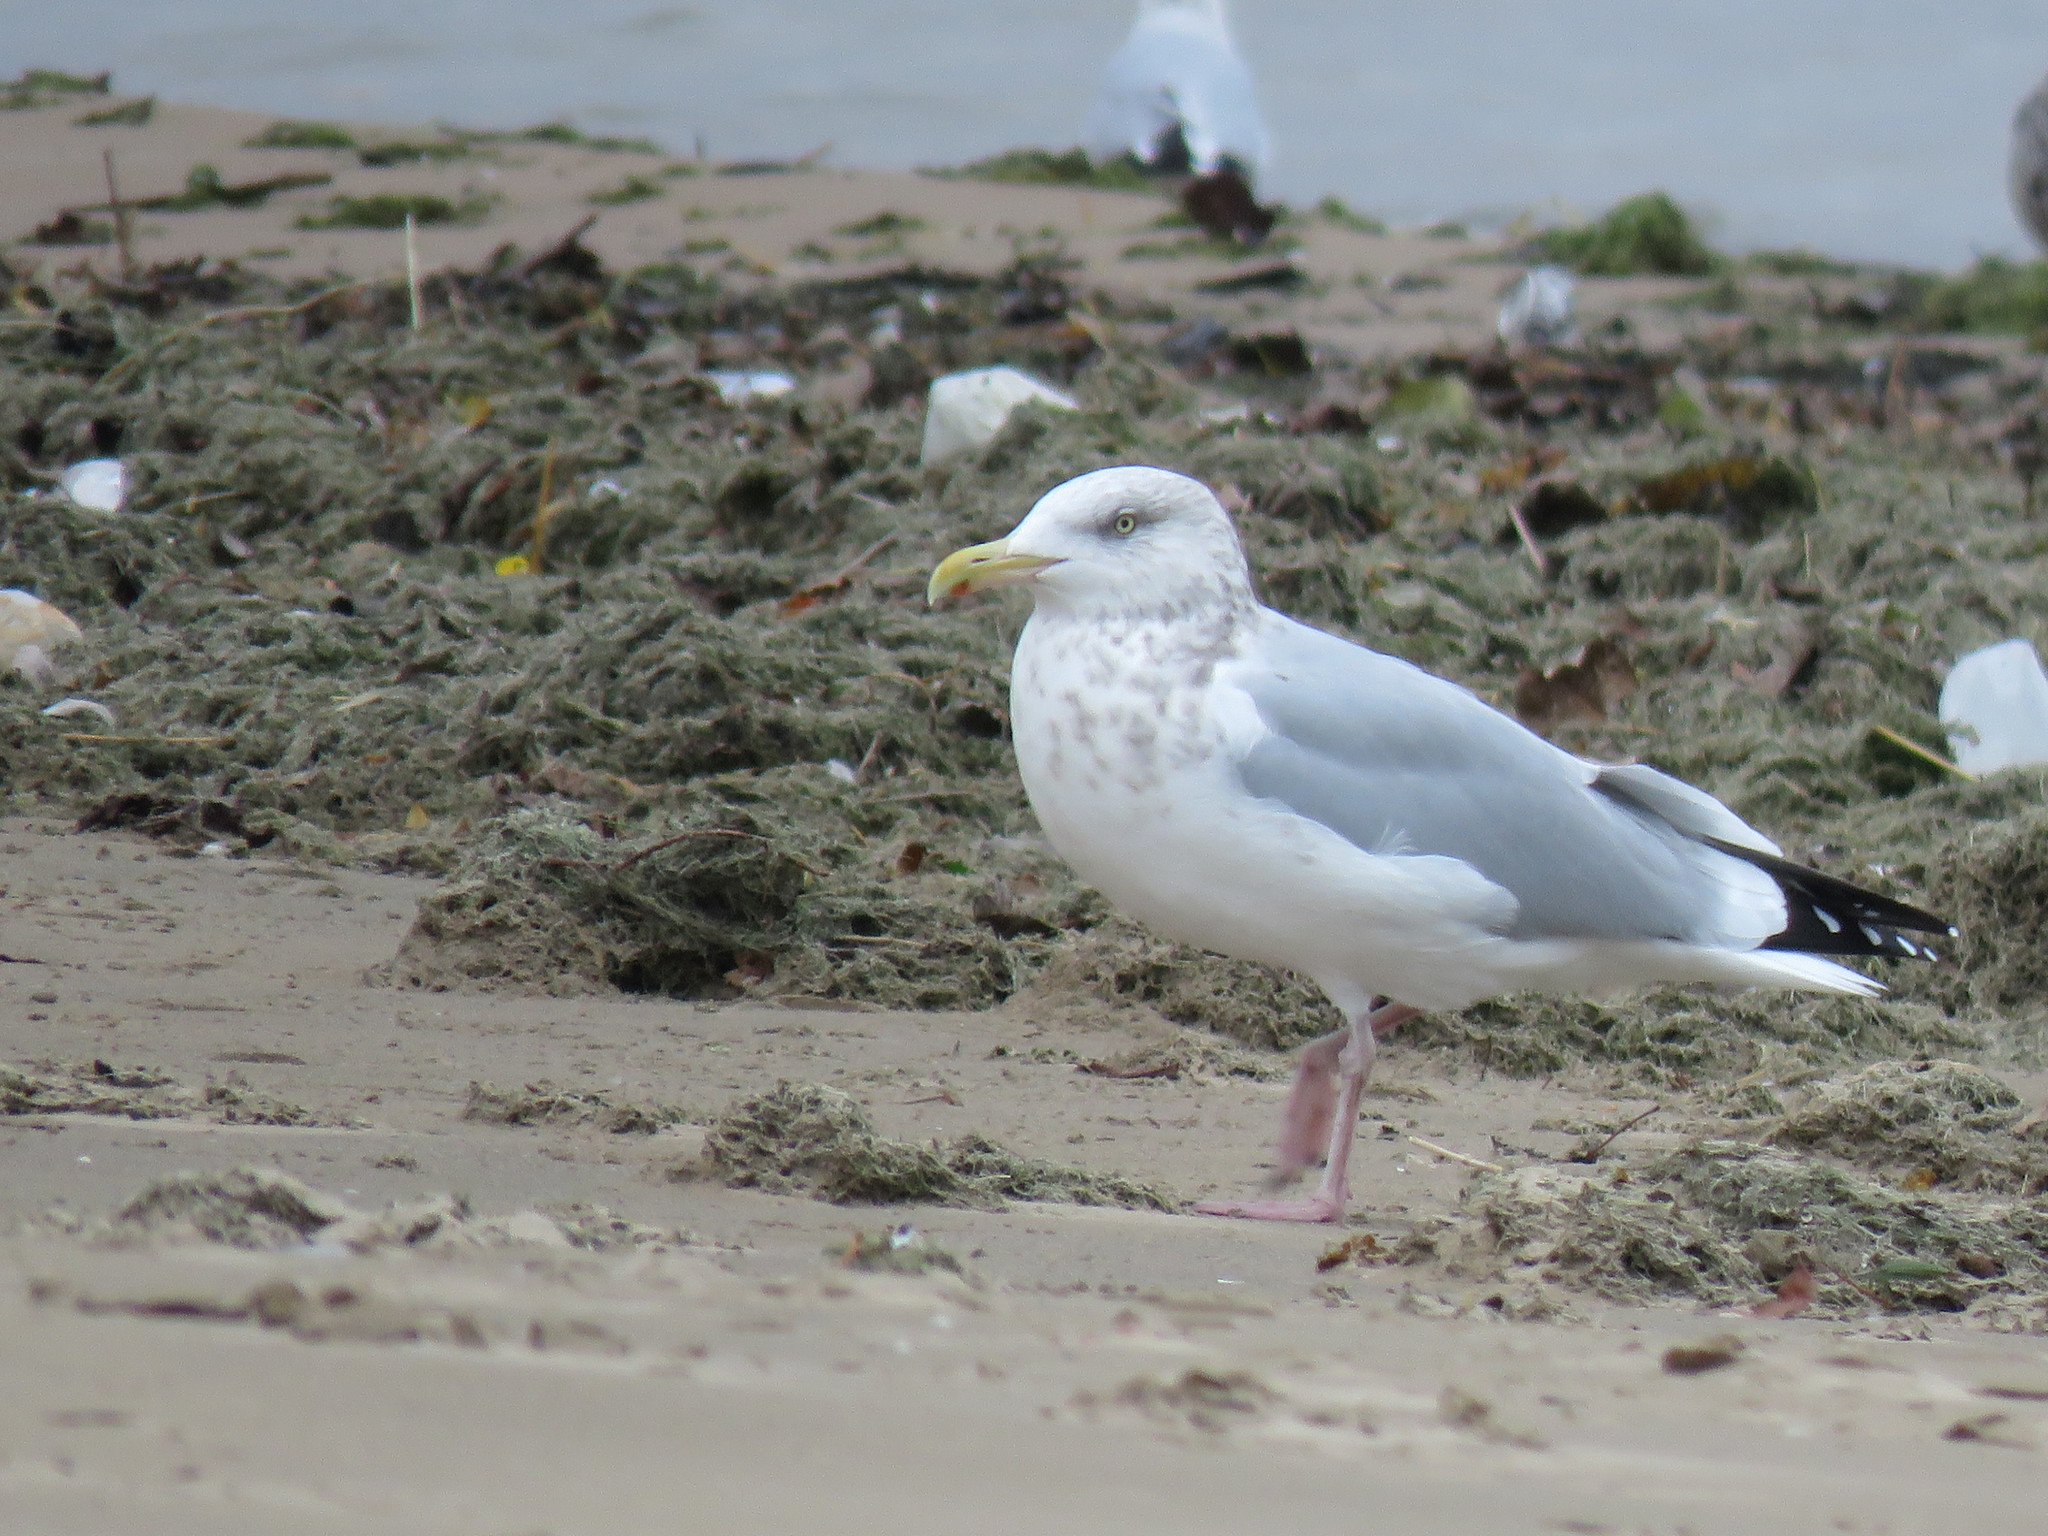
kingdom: Animalia
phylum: Chordata
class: Aves
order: Charadriiformes
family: Laridae
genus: Larus
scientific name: Larus argentatus
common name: Herring gull
